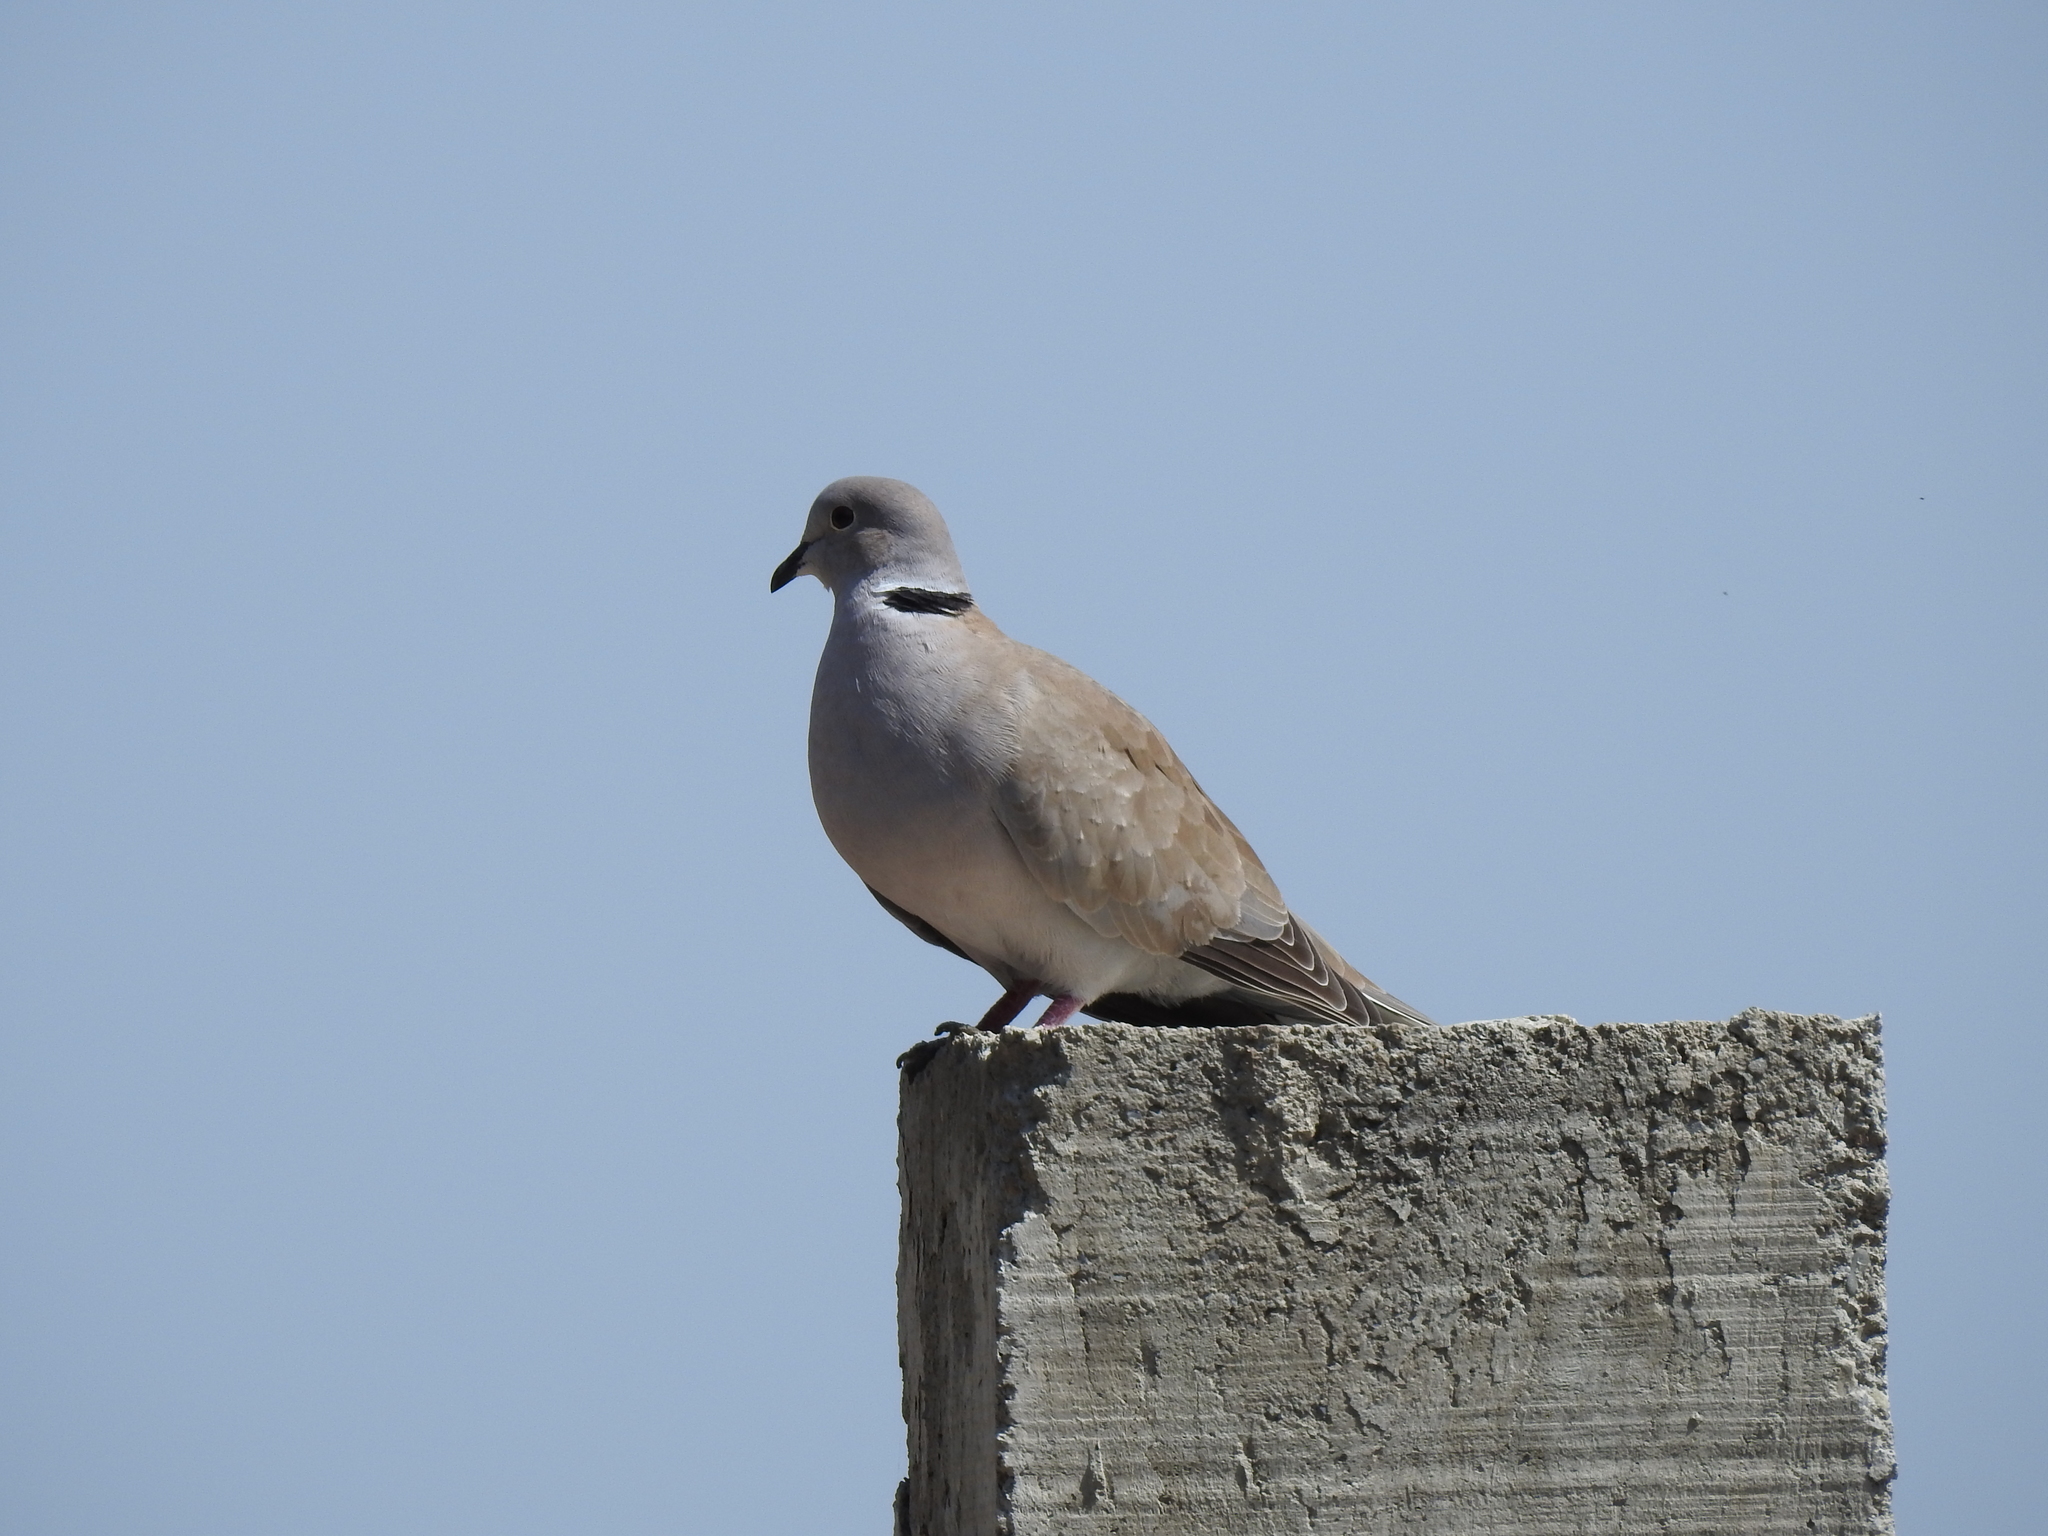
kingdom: Animalia
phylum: Chordata
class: Aves
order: Columbiformes
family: Columbidae
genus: Streptopelia
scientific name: Streptopelia decaocto
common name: Eurasian collared dove
